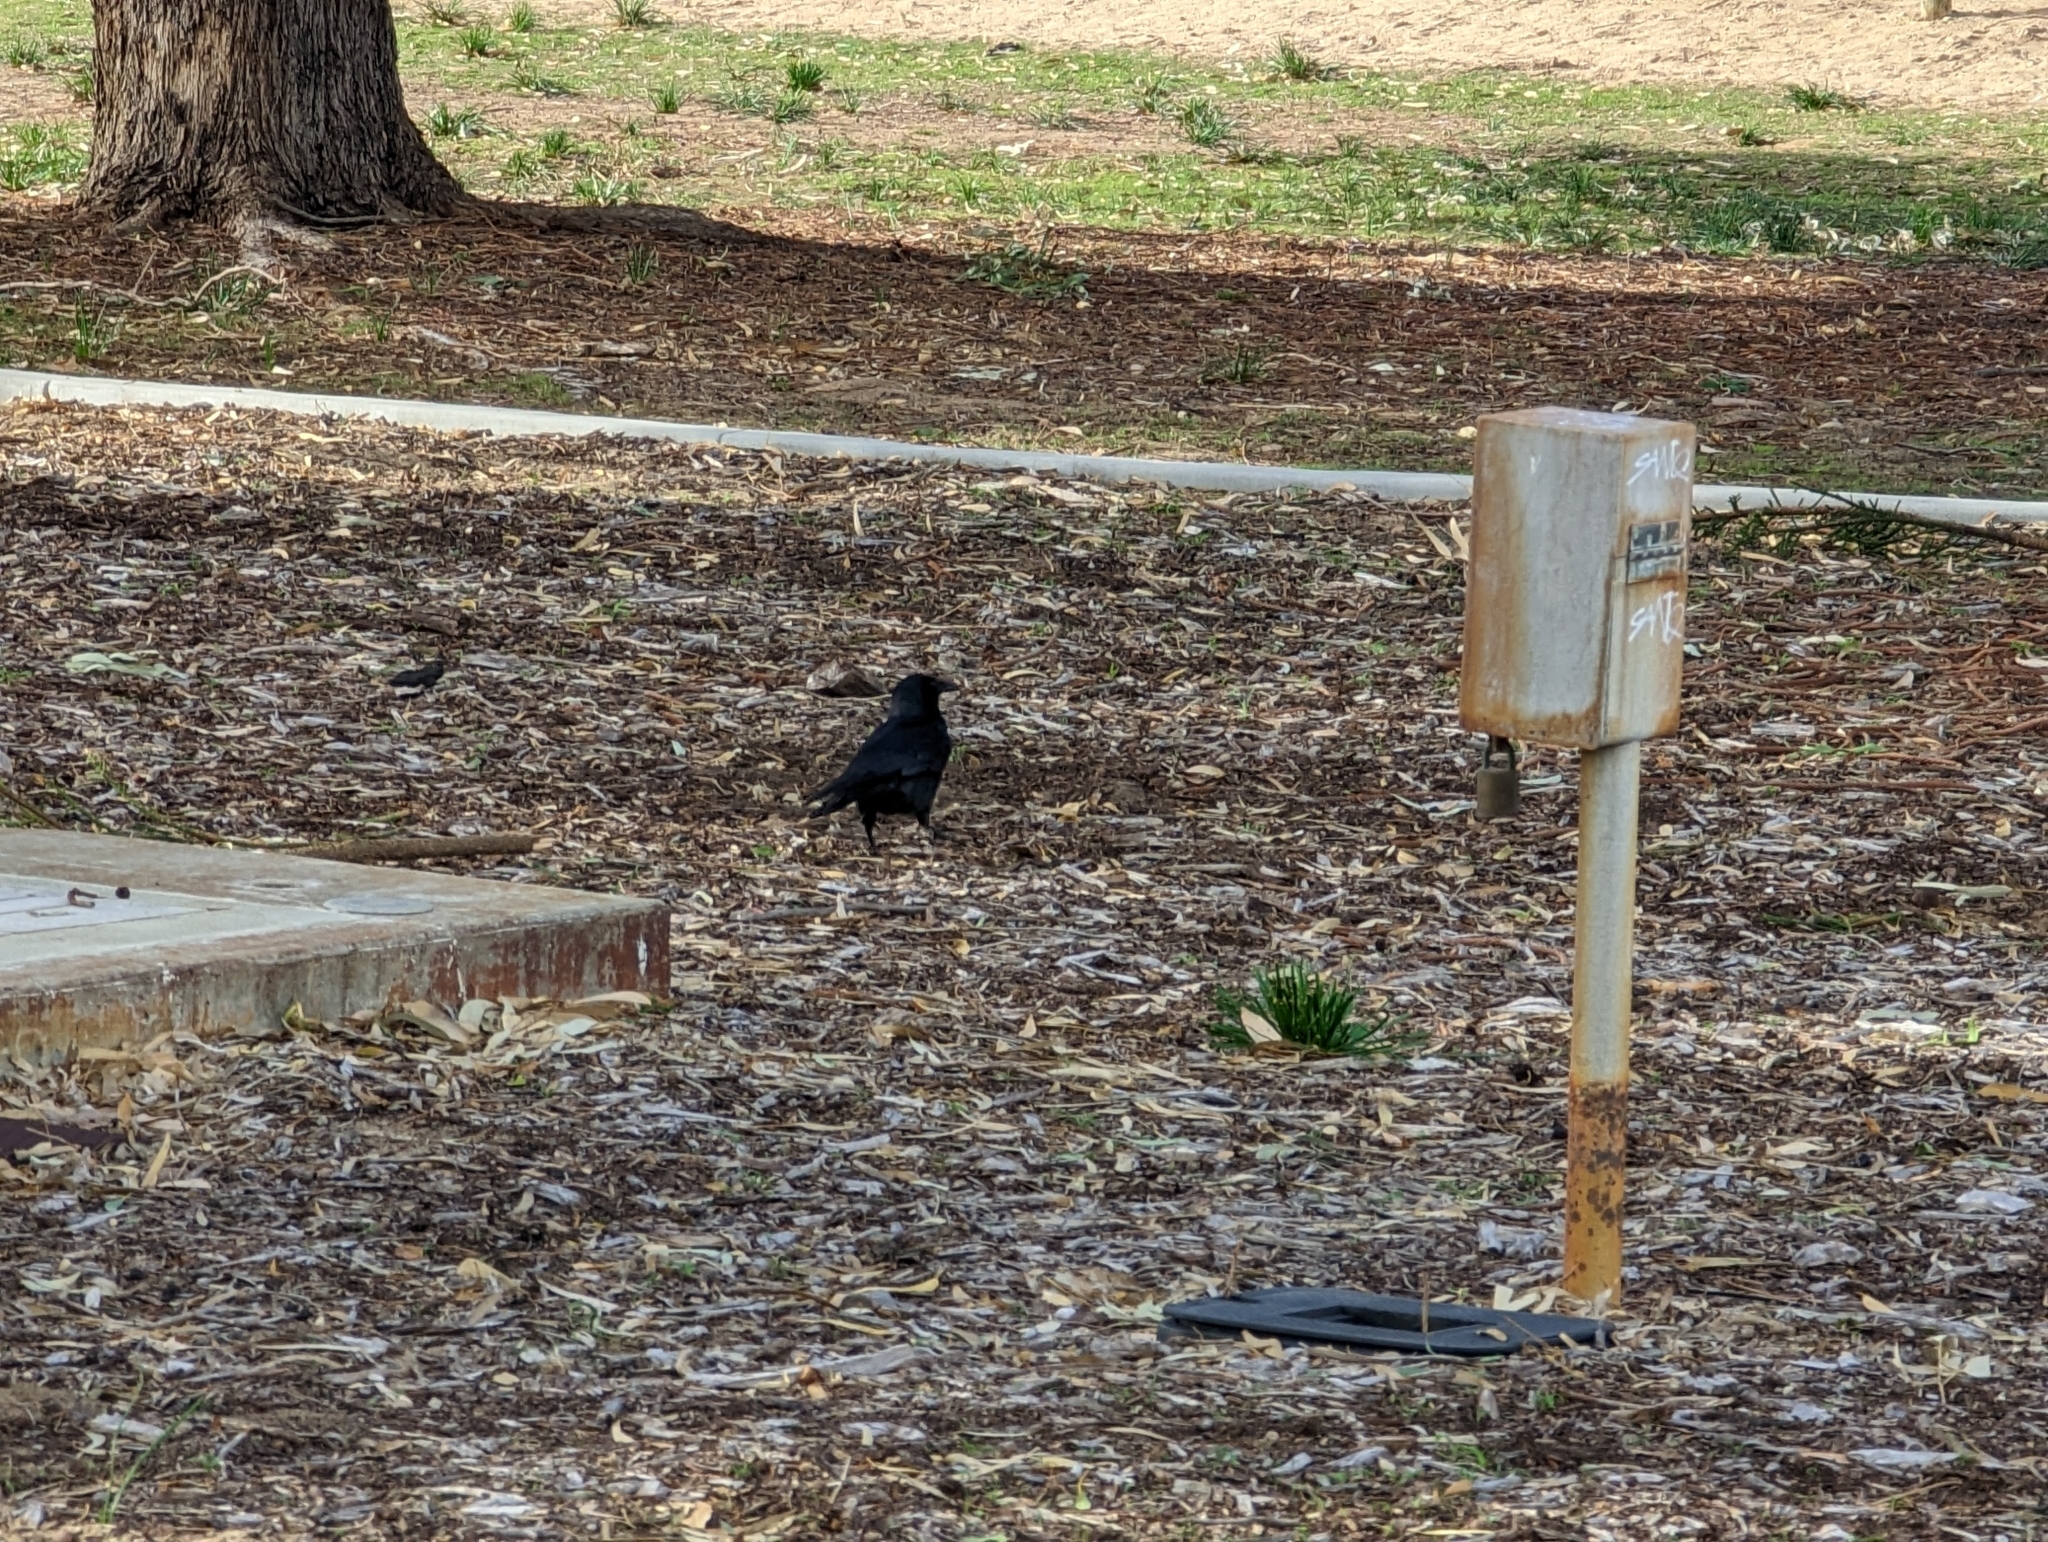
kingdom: Animalia
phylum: Chordata
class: Aves
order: Passeriformes
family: Corvidae
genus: Corvus
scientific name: Corvus coronoides
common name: Australian raven
